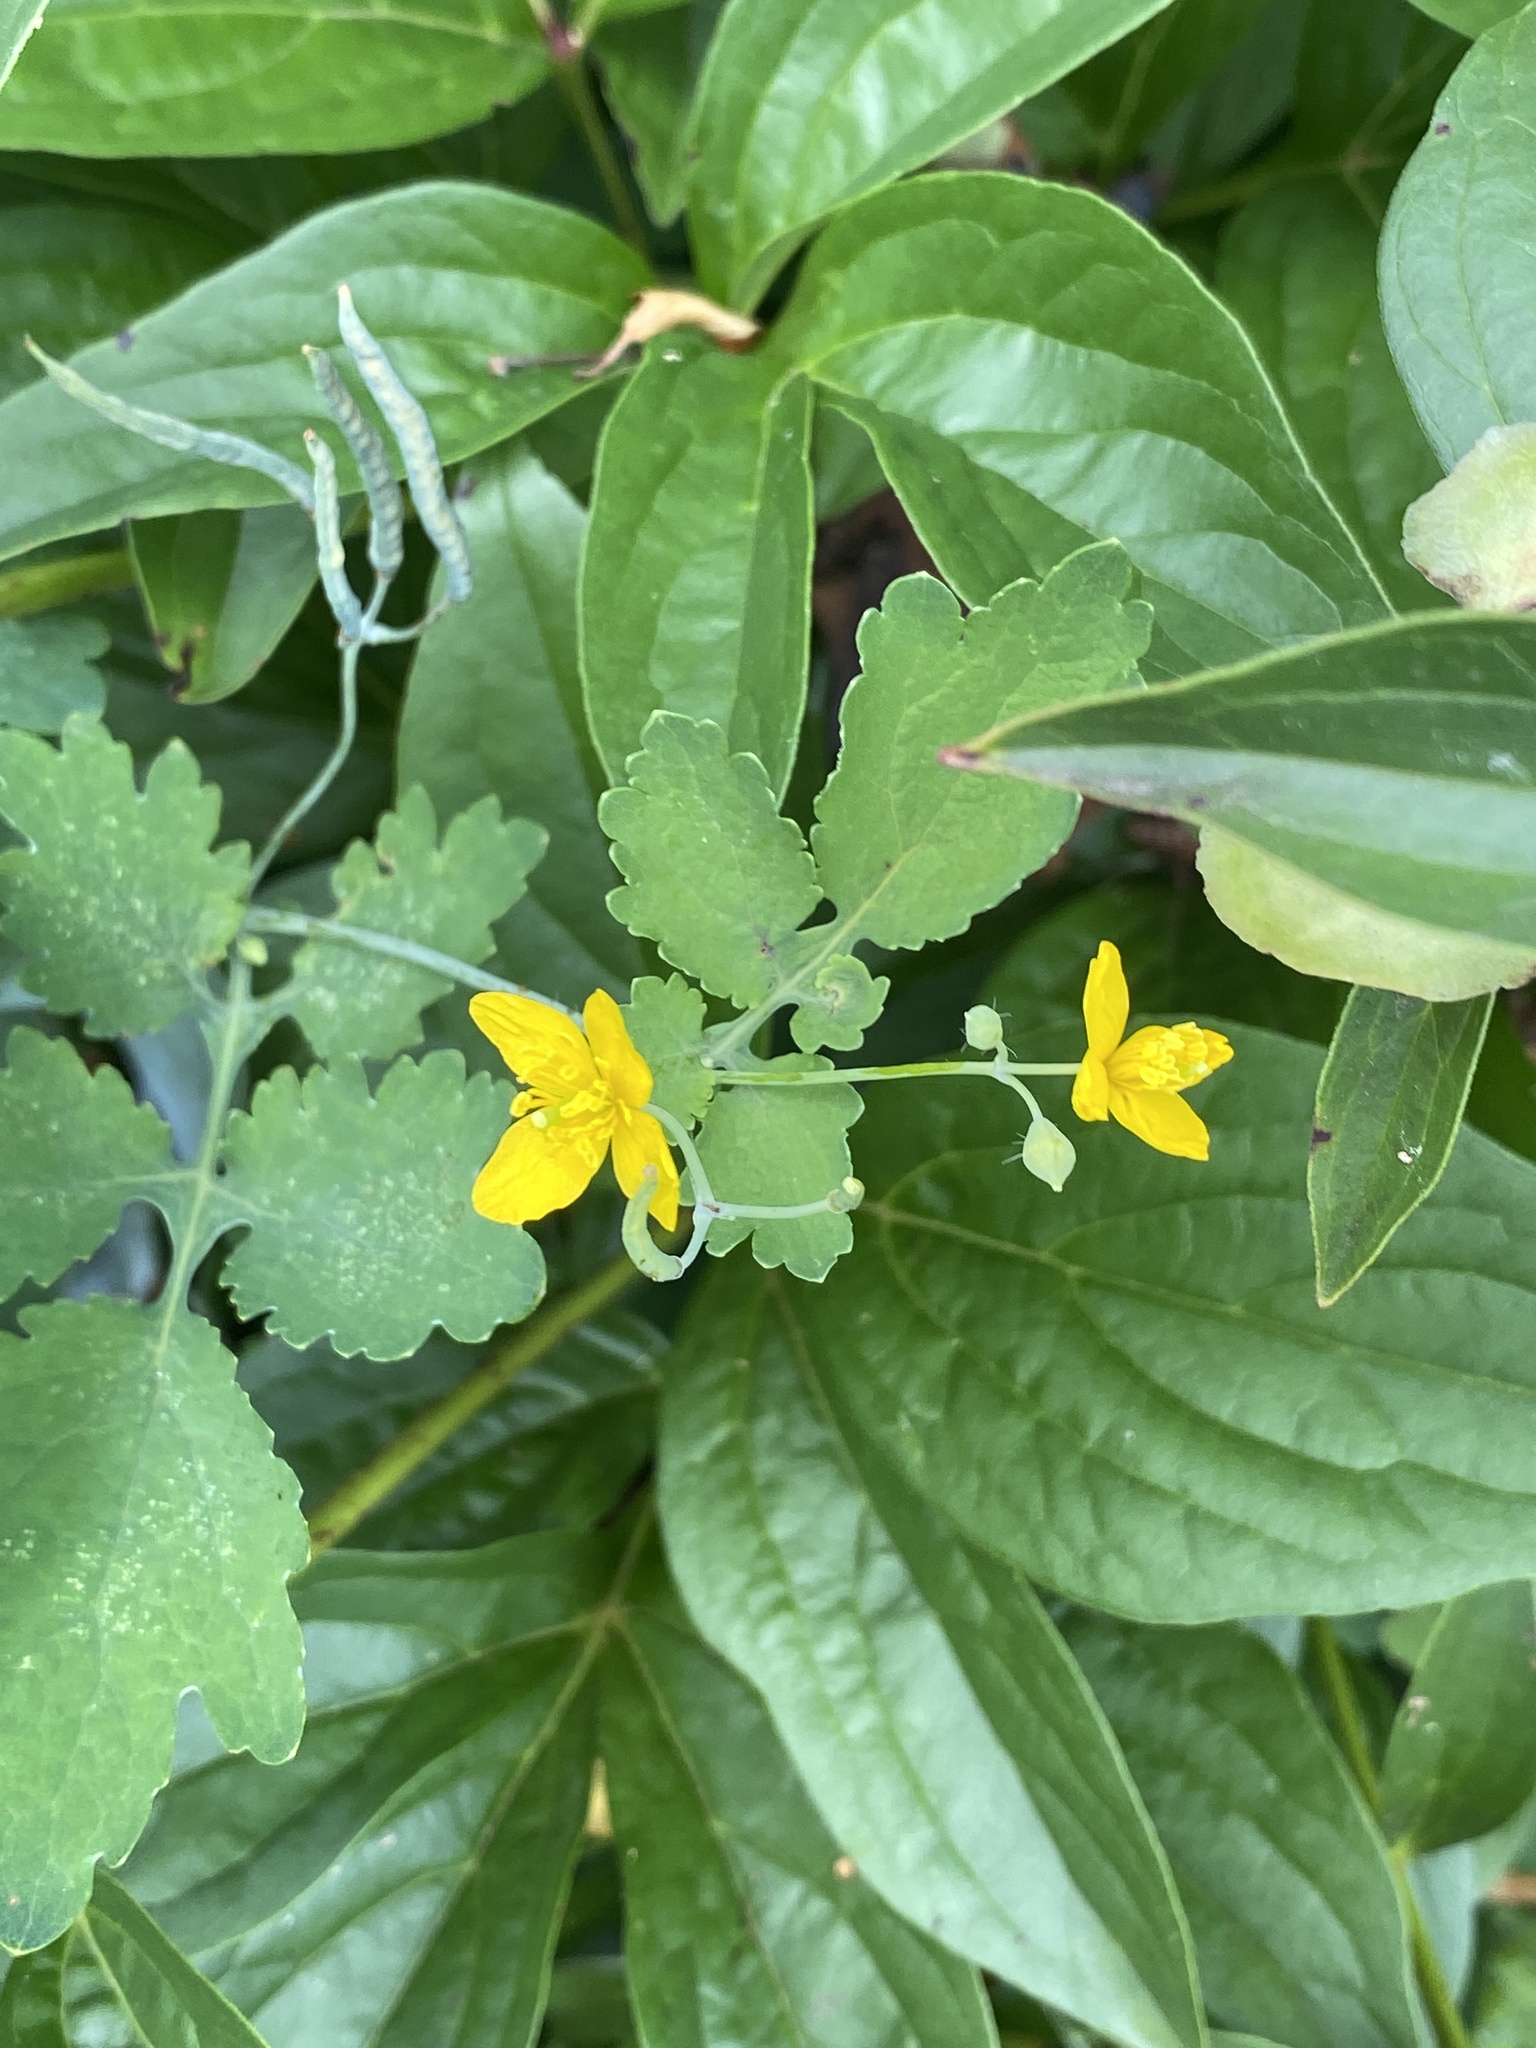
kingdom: Plantae
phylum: Tracheophyta
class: Magnoliopsida
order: Ranunculales
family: Papaveraceae
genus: Chelidonium
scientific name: Chelidonium majus
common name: Greater celandine
